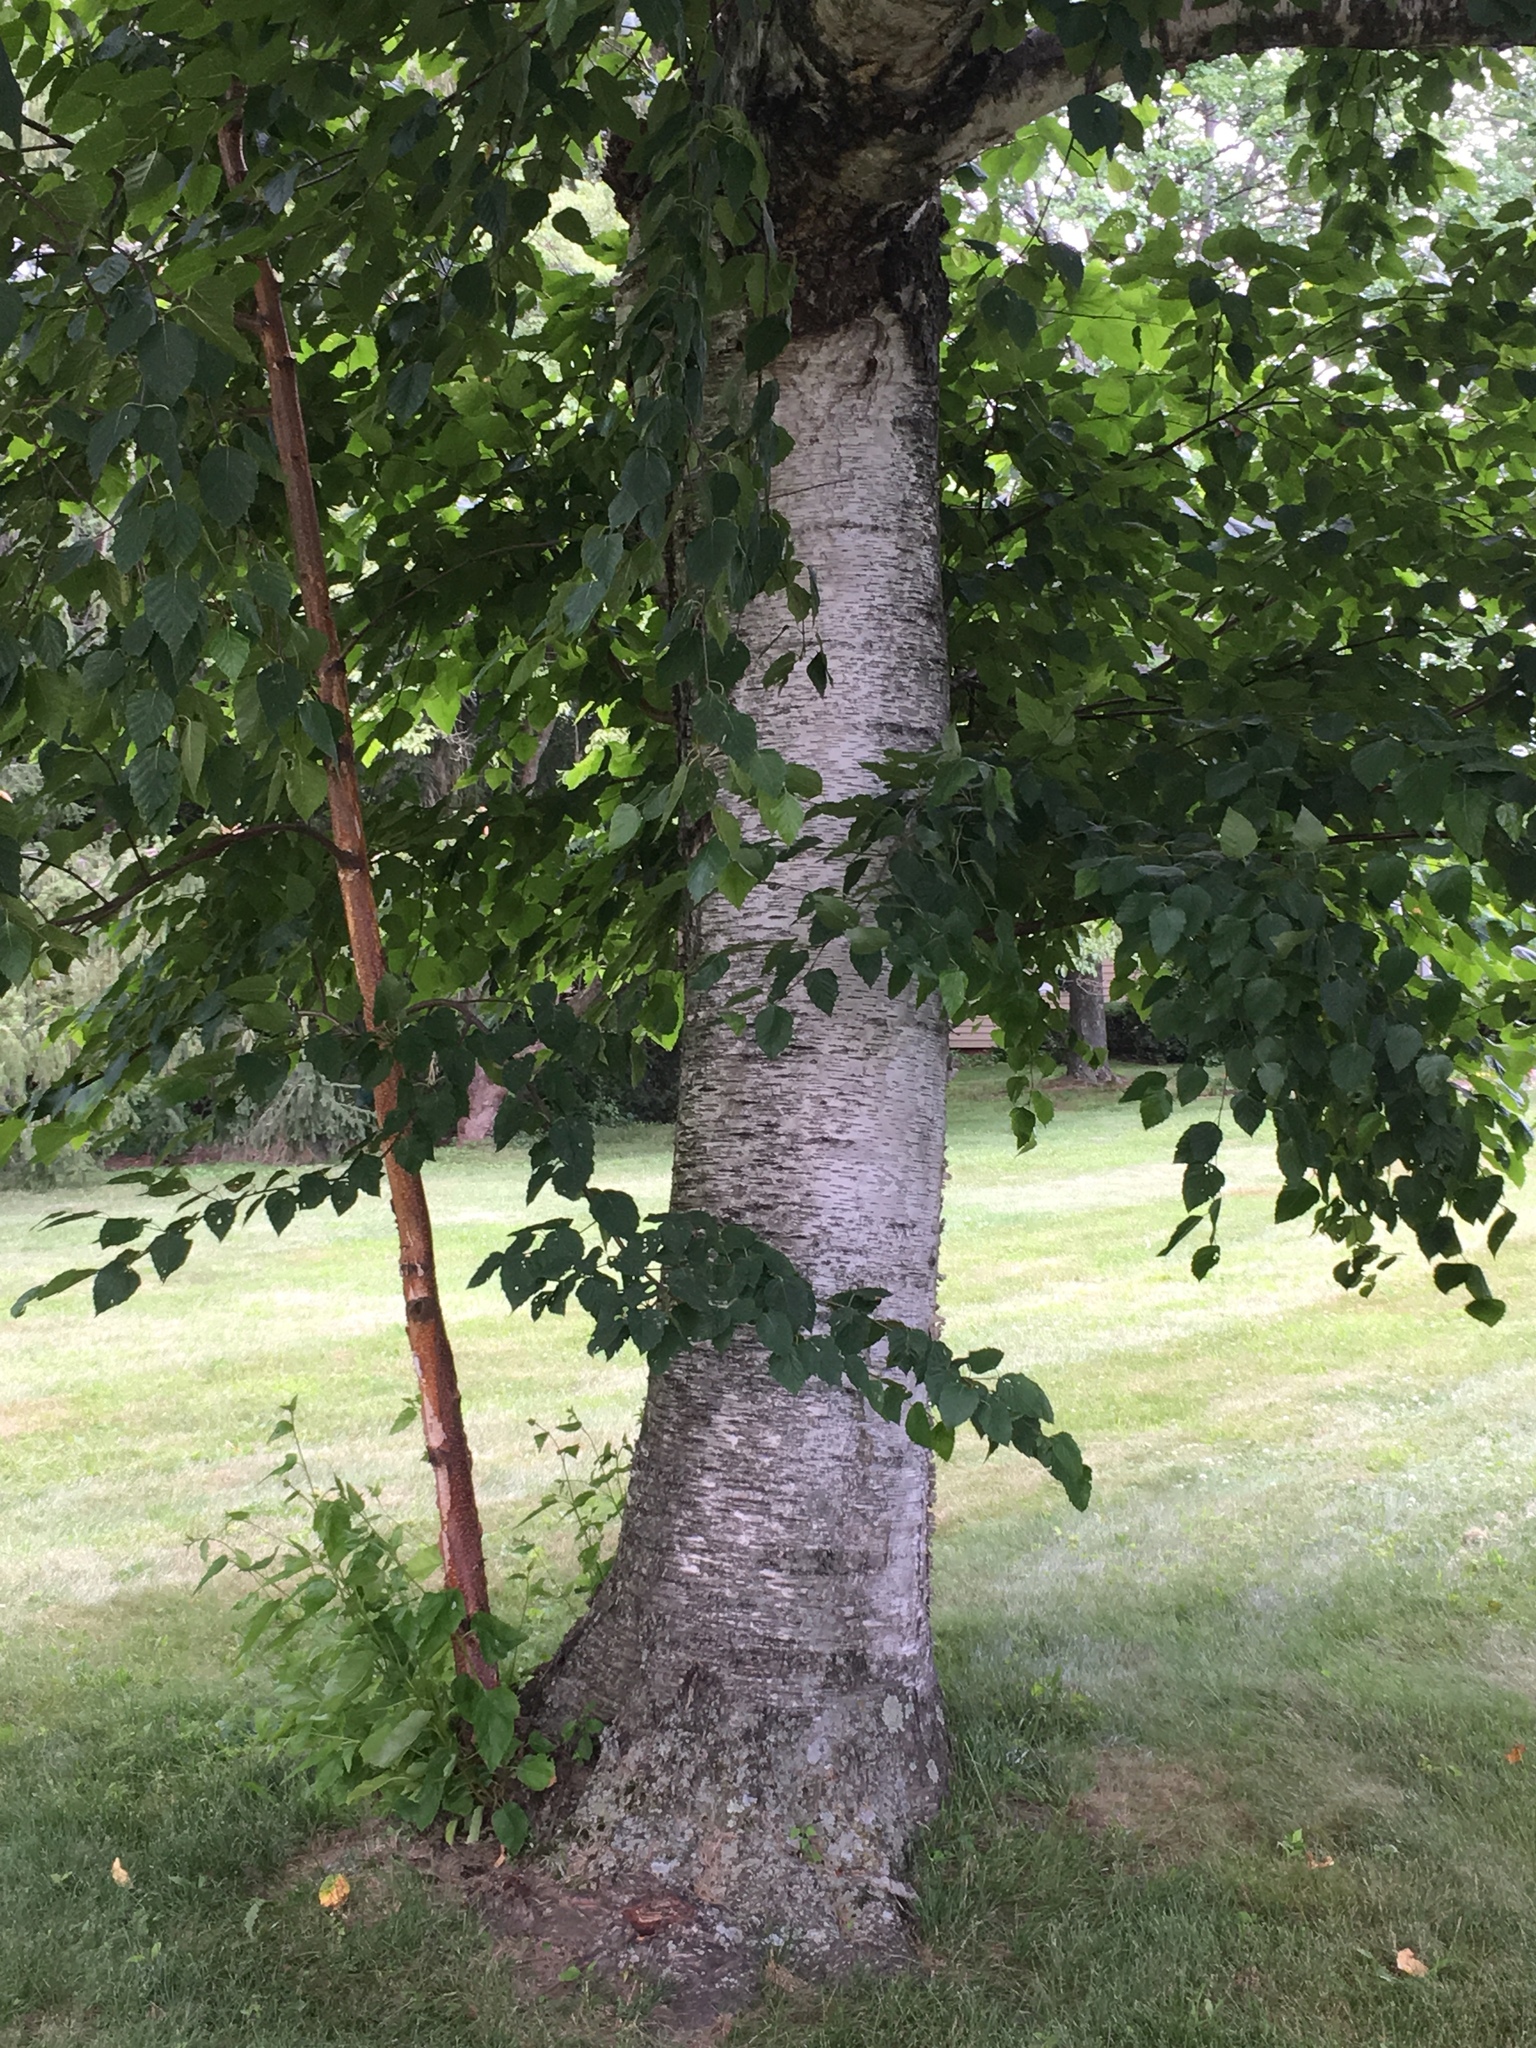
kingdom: Plantae
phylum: Tracheophyta
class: Magnoliopsida
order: Fagales
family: Betulaceae
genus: Betula
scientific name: Betula papyrifera
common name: Paper birch
